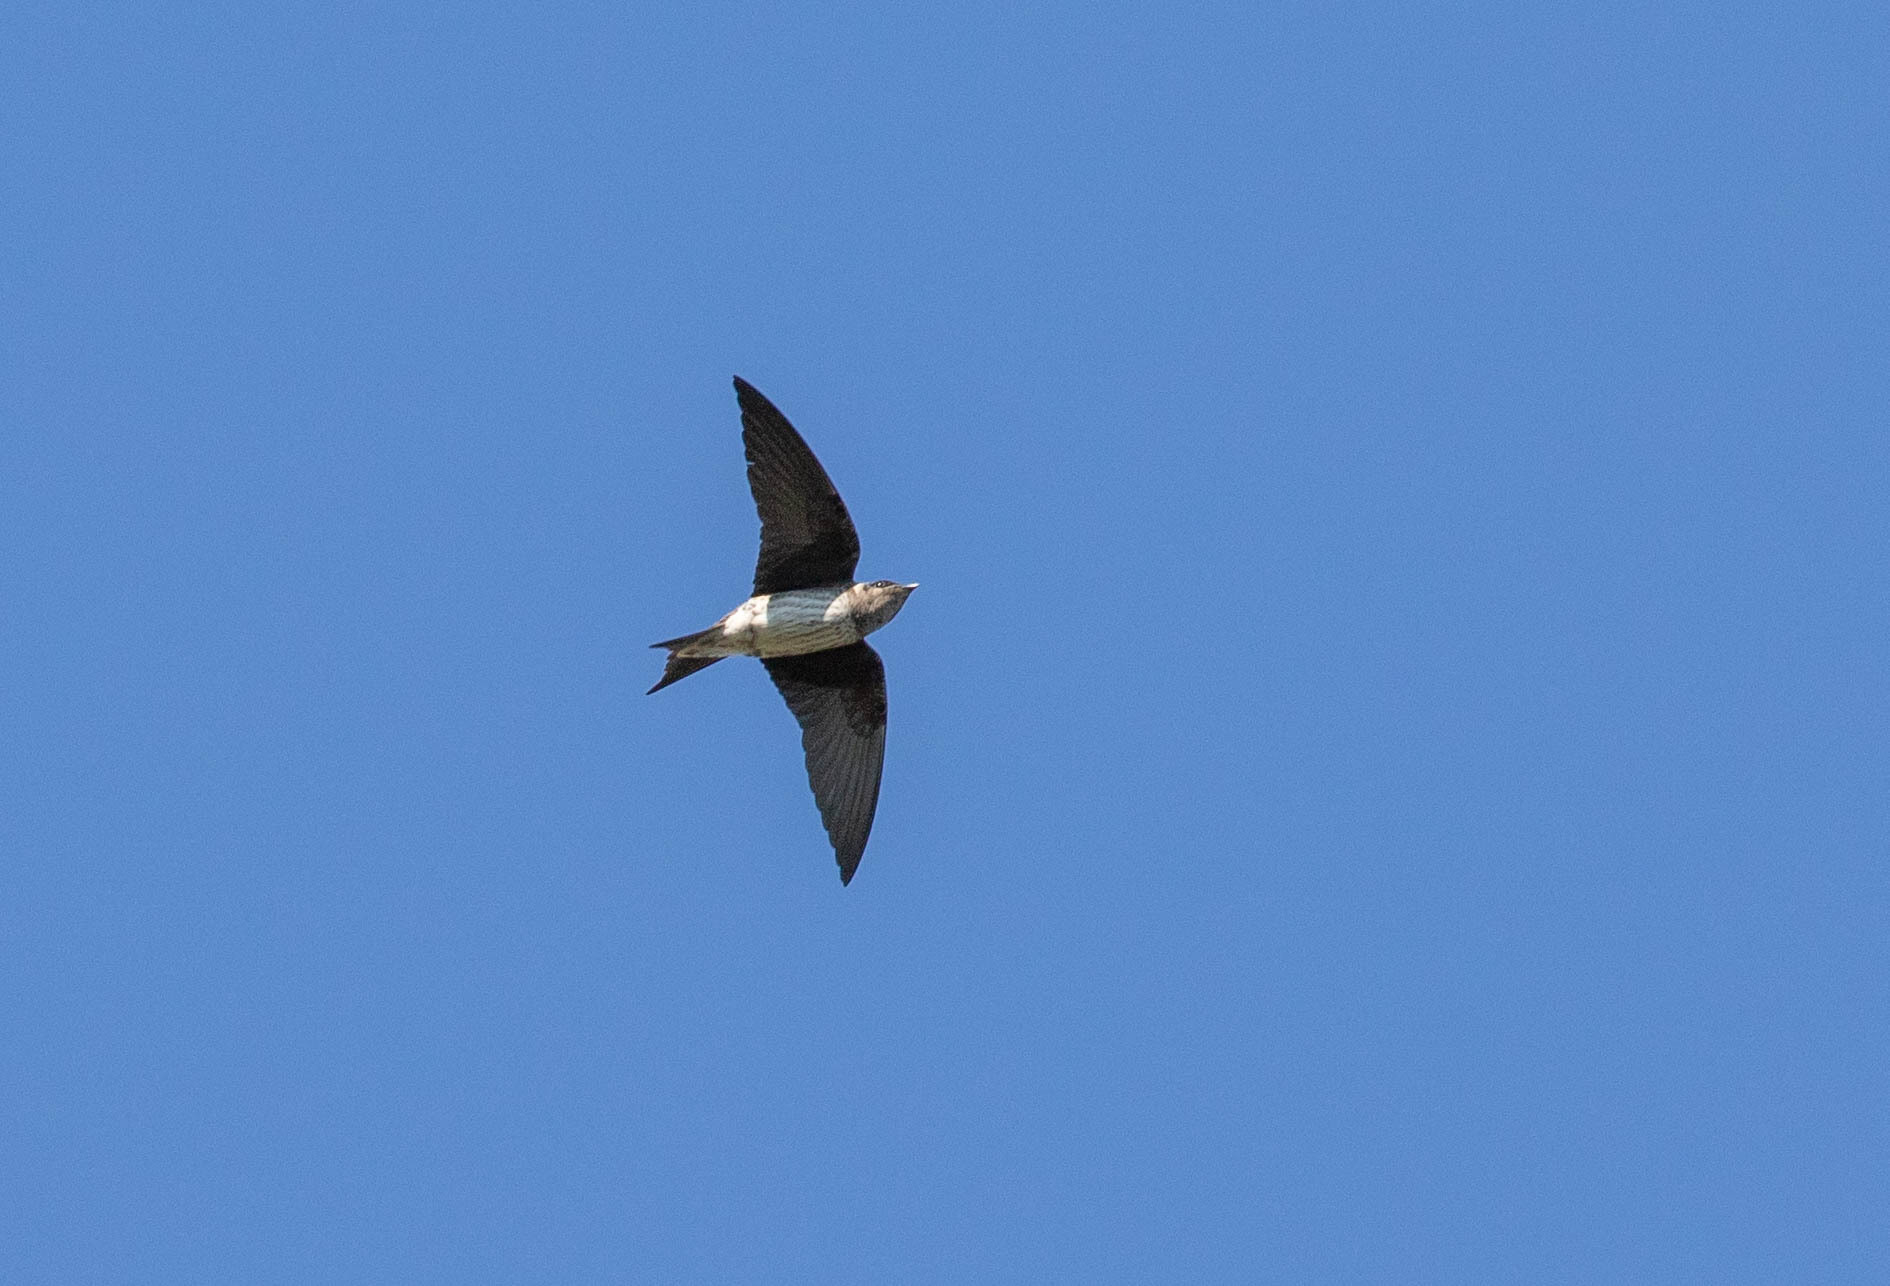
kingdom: Animalia
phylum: Chordata
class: Aves
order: Passeriformes
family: Hirundinidae
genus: Progne
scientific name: Progne subis
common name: Purple martin
